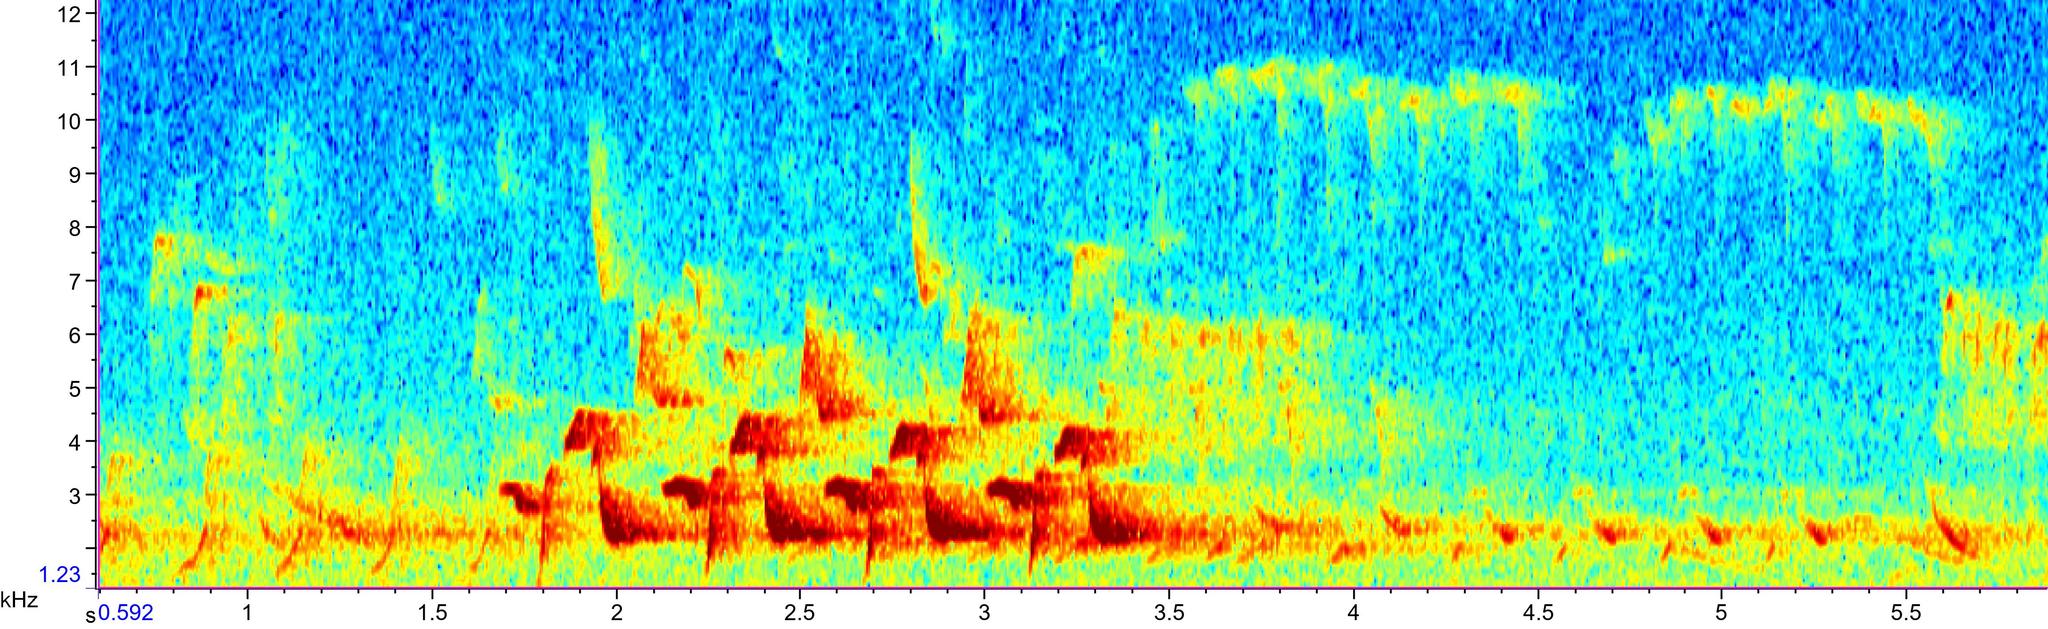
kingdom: Animalia
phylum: Chordata
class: Aves
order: Passeriformes
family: Troglodytidae
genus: Thryothorus
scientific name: Thryothorus ludovicianus
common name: Carolina wren
